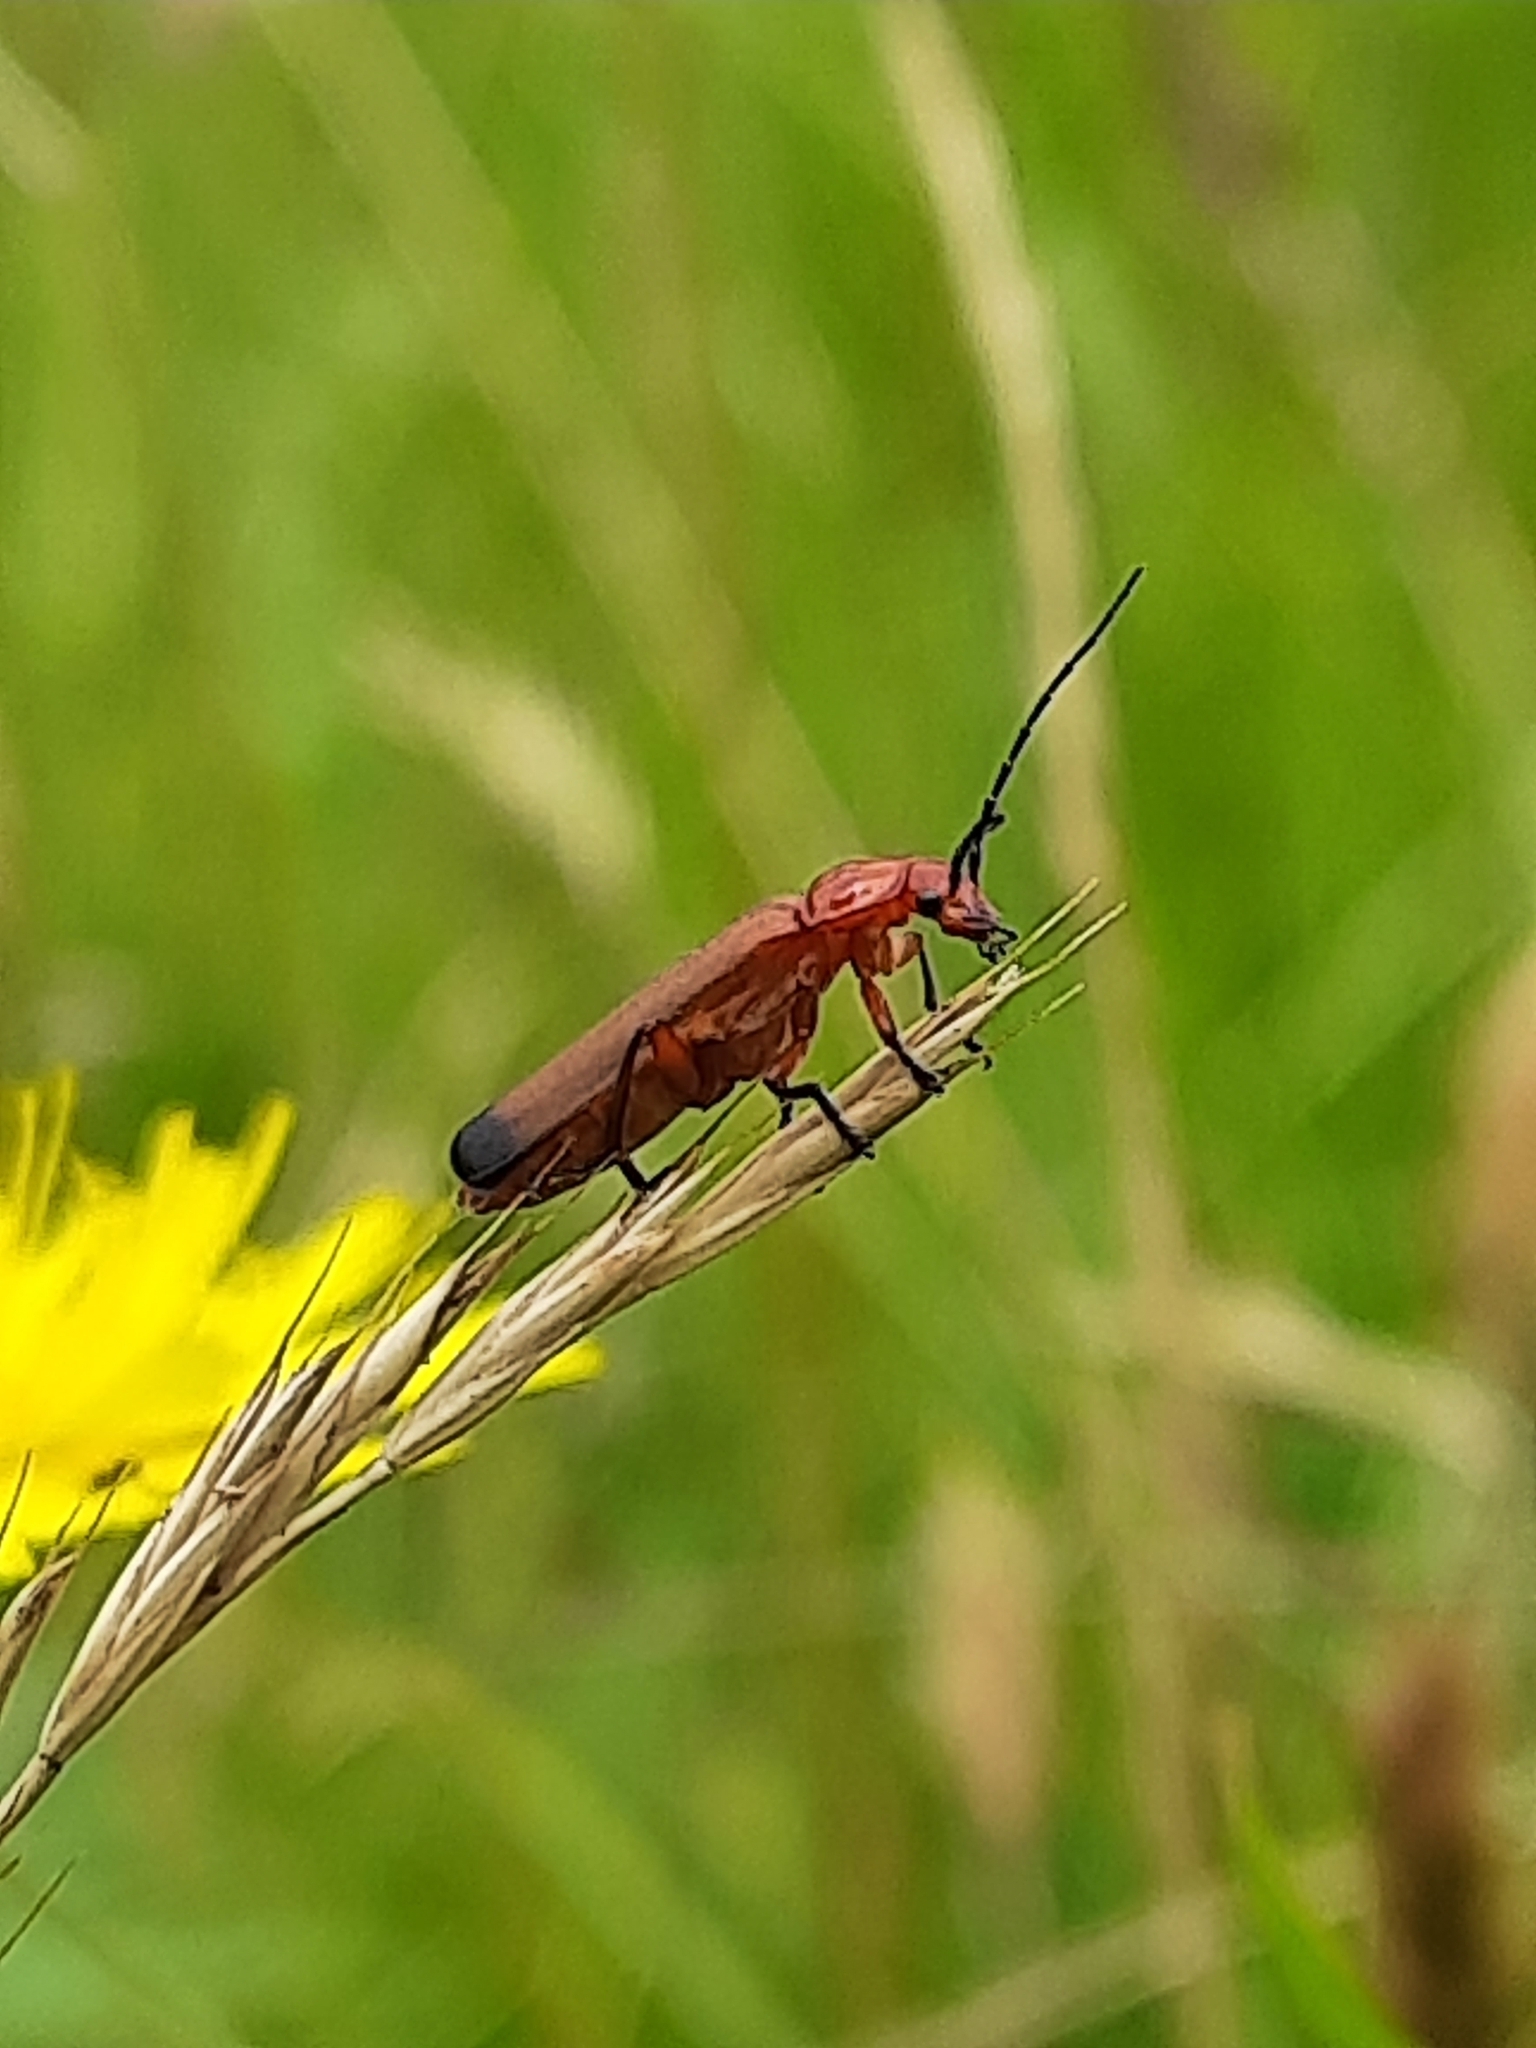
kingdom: Animalia
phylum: Arthropoda
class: Insecta
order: Coleoptera
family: Cantharidae
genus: Rhagonycha
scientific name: Rhagonycha fulva
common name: Common red soldier beetle
